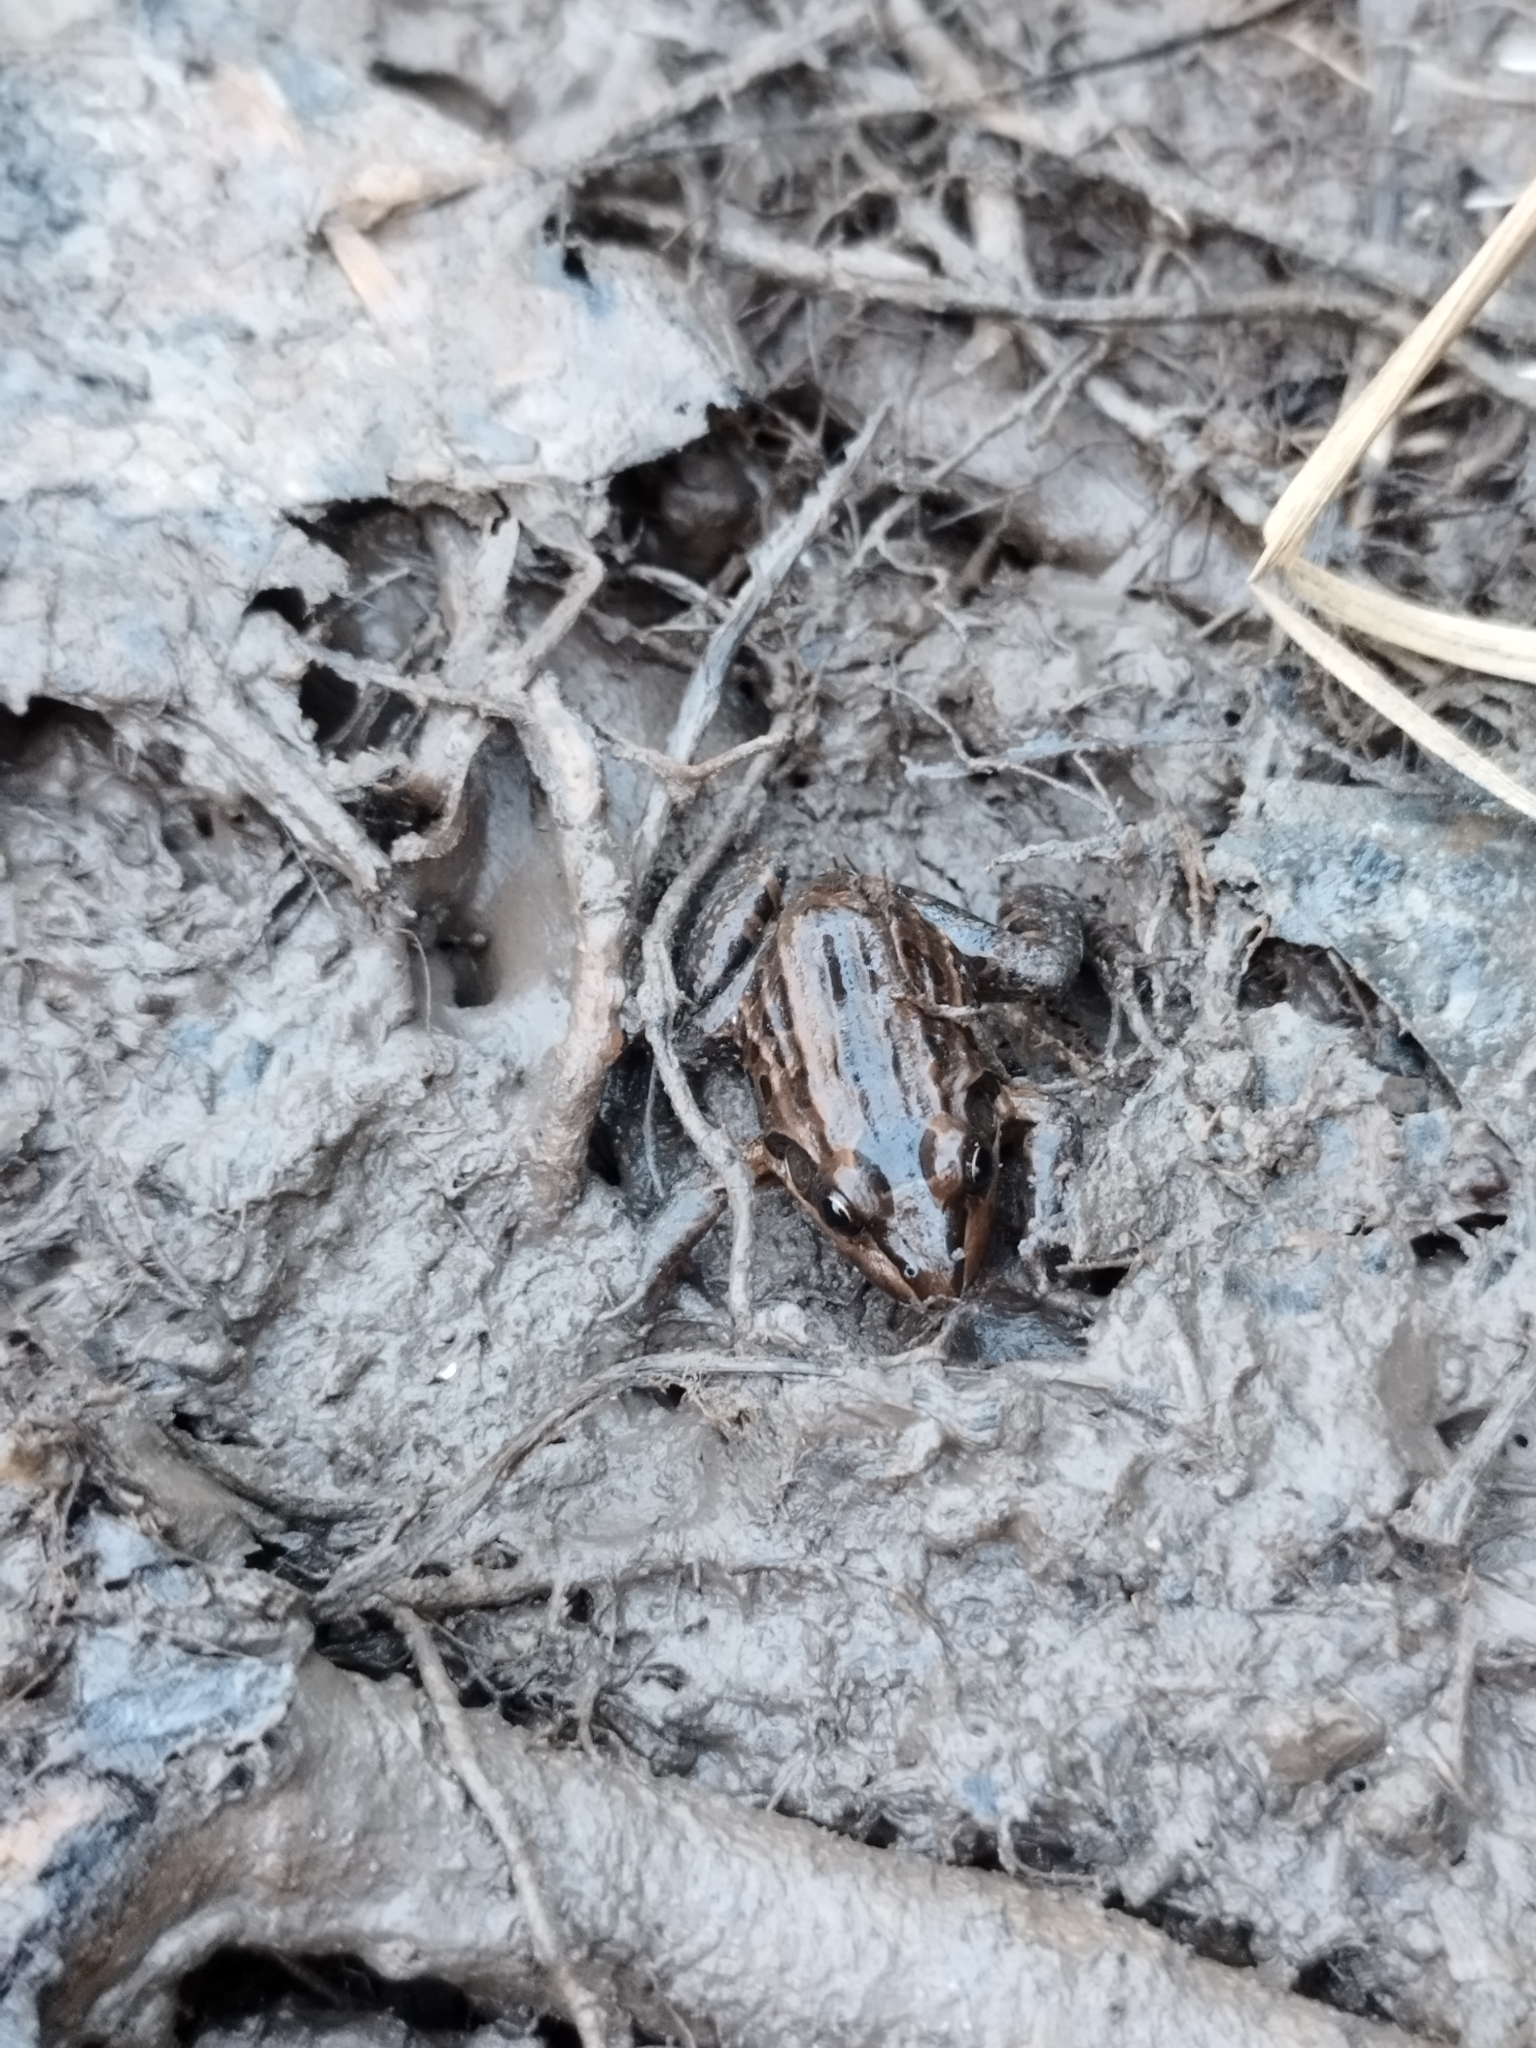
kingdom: Animalia
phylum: Chordata
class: Amphibia
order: Anura
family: Leptodactylidae
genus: Leptodactylus
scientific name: Leptodactylus luctator
